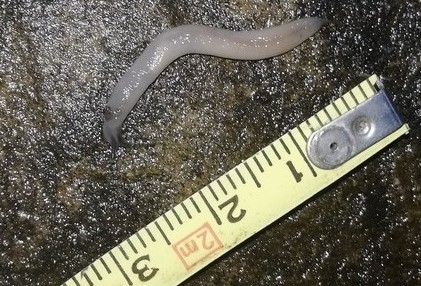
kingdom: Animalia
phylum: Mollusca
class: Gastropoda
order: Stylommatophora
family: Boettgerillidae
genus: Boettgerilla
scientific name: Boettgerilla pallens
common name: Worm slug
